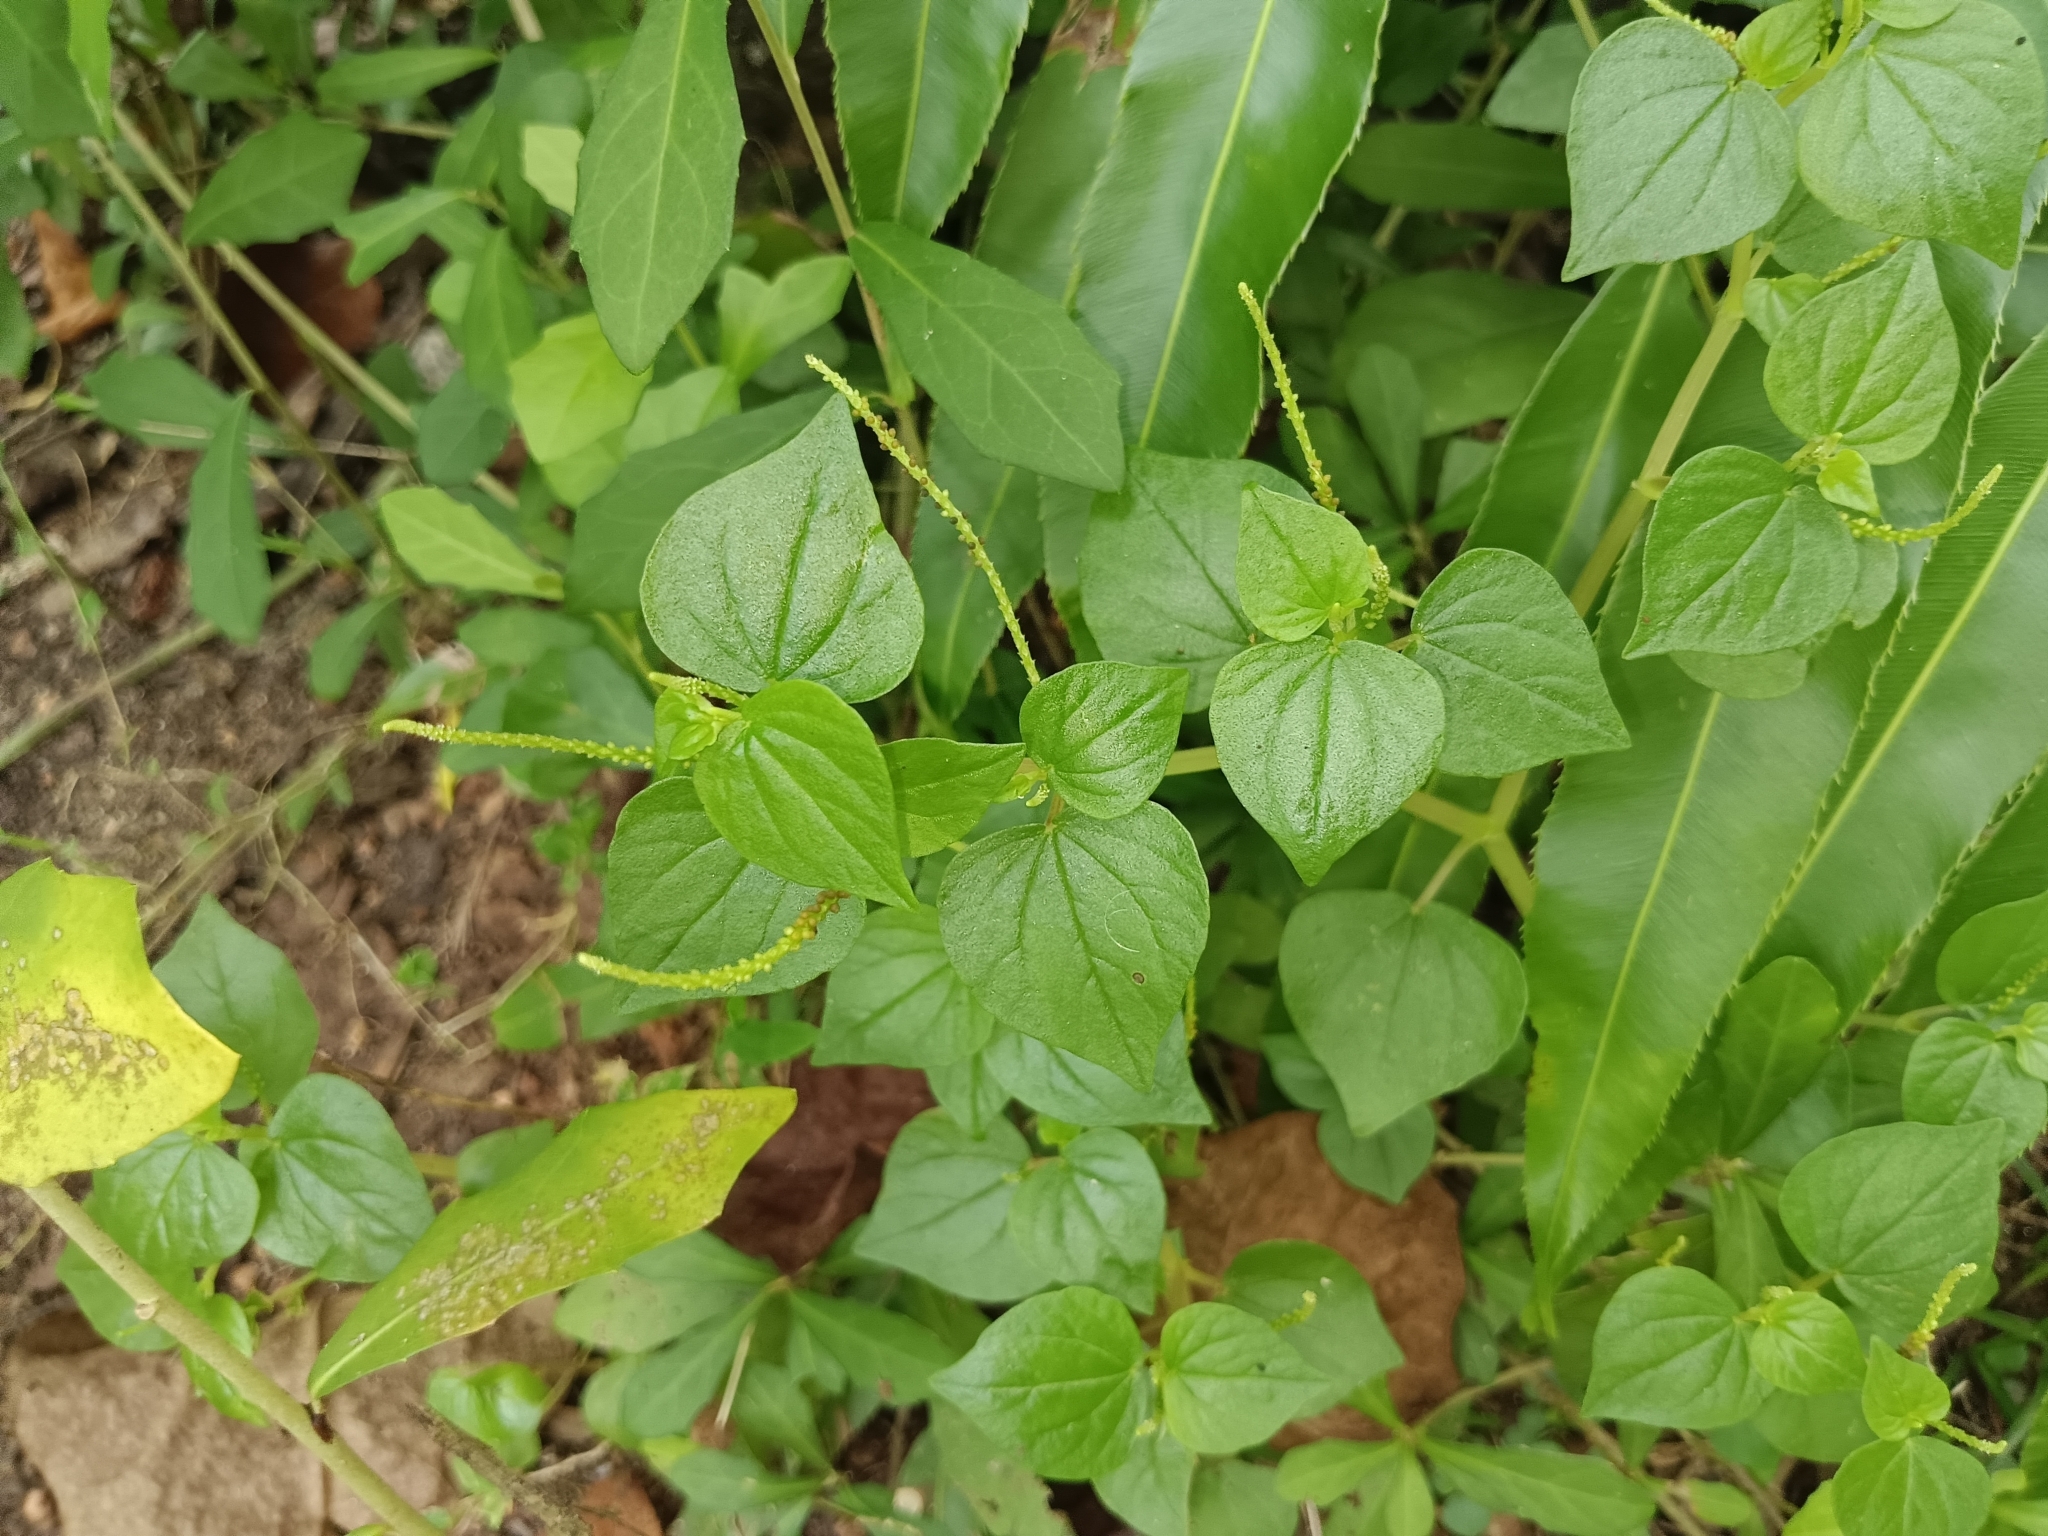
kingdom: Plantae
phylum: Tracheophyta
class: Magnoliopsida
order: Piperales
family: Piperaceae
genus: Peperomia
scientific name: Peperomia pellucida
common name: Man to man
